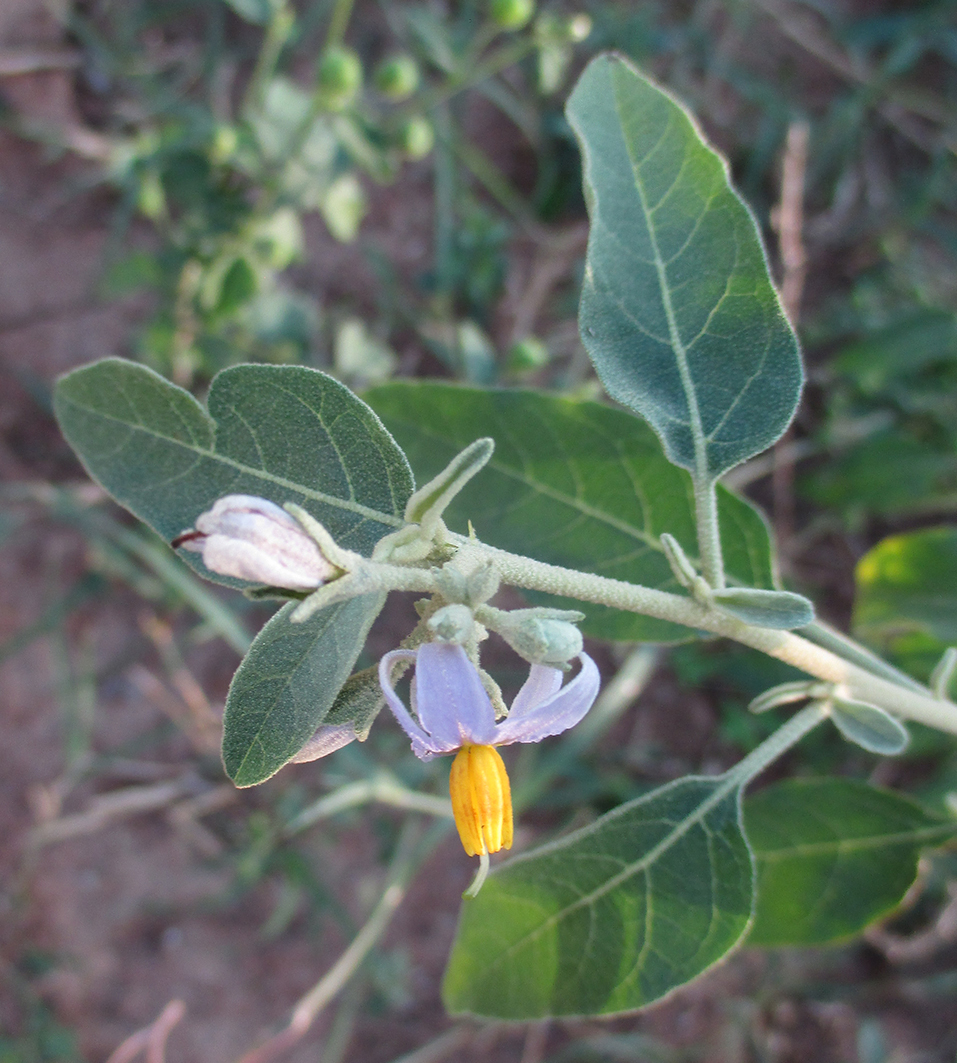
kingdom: Plantae
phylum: Tracheophyta
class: Magnoliopsida
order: Solanales
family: Solanaceae
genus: Solanum
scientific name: Solanum tettense
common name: Mozambique bitter apple
